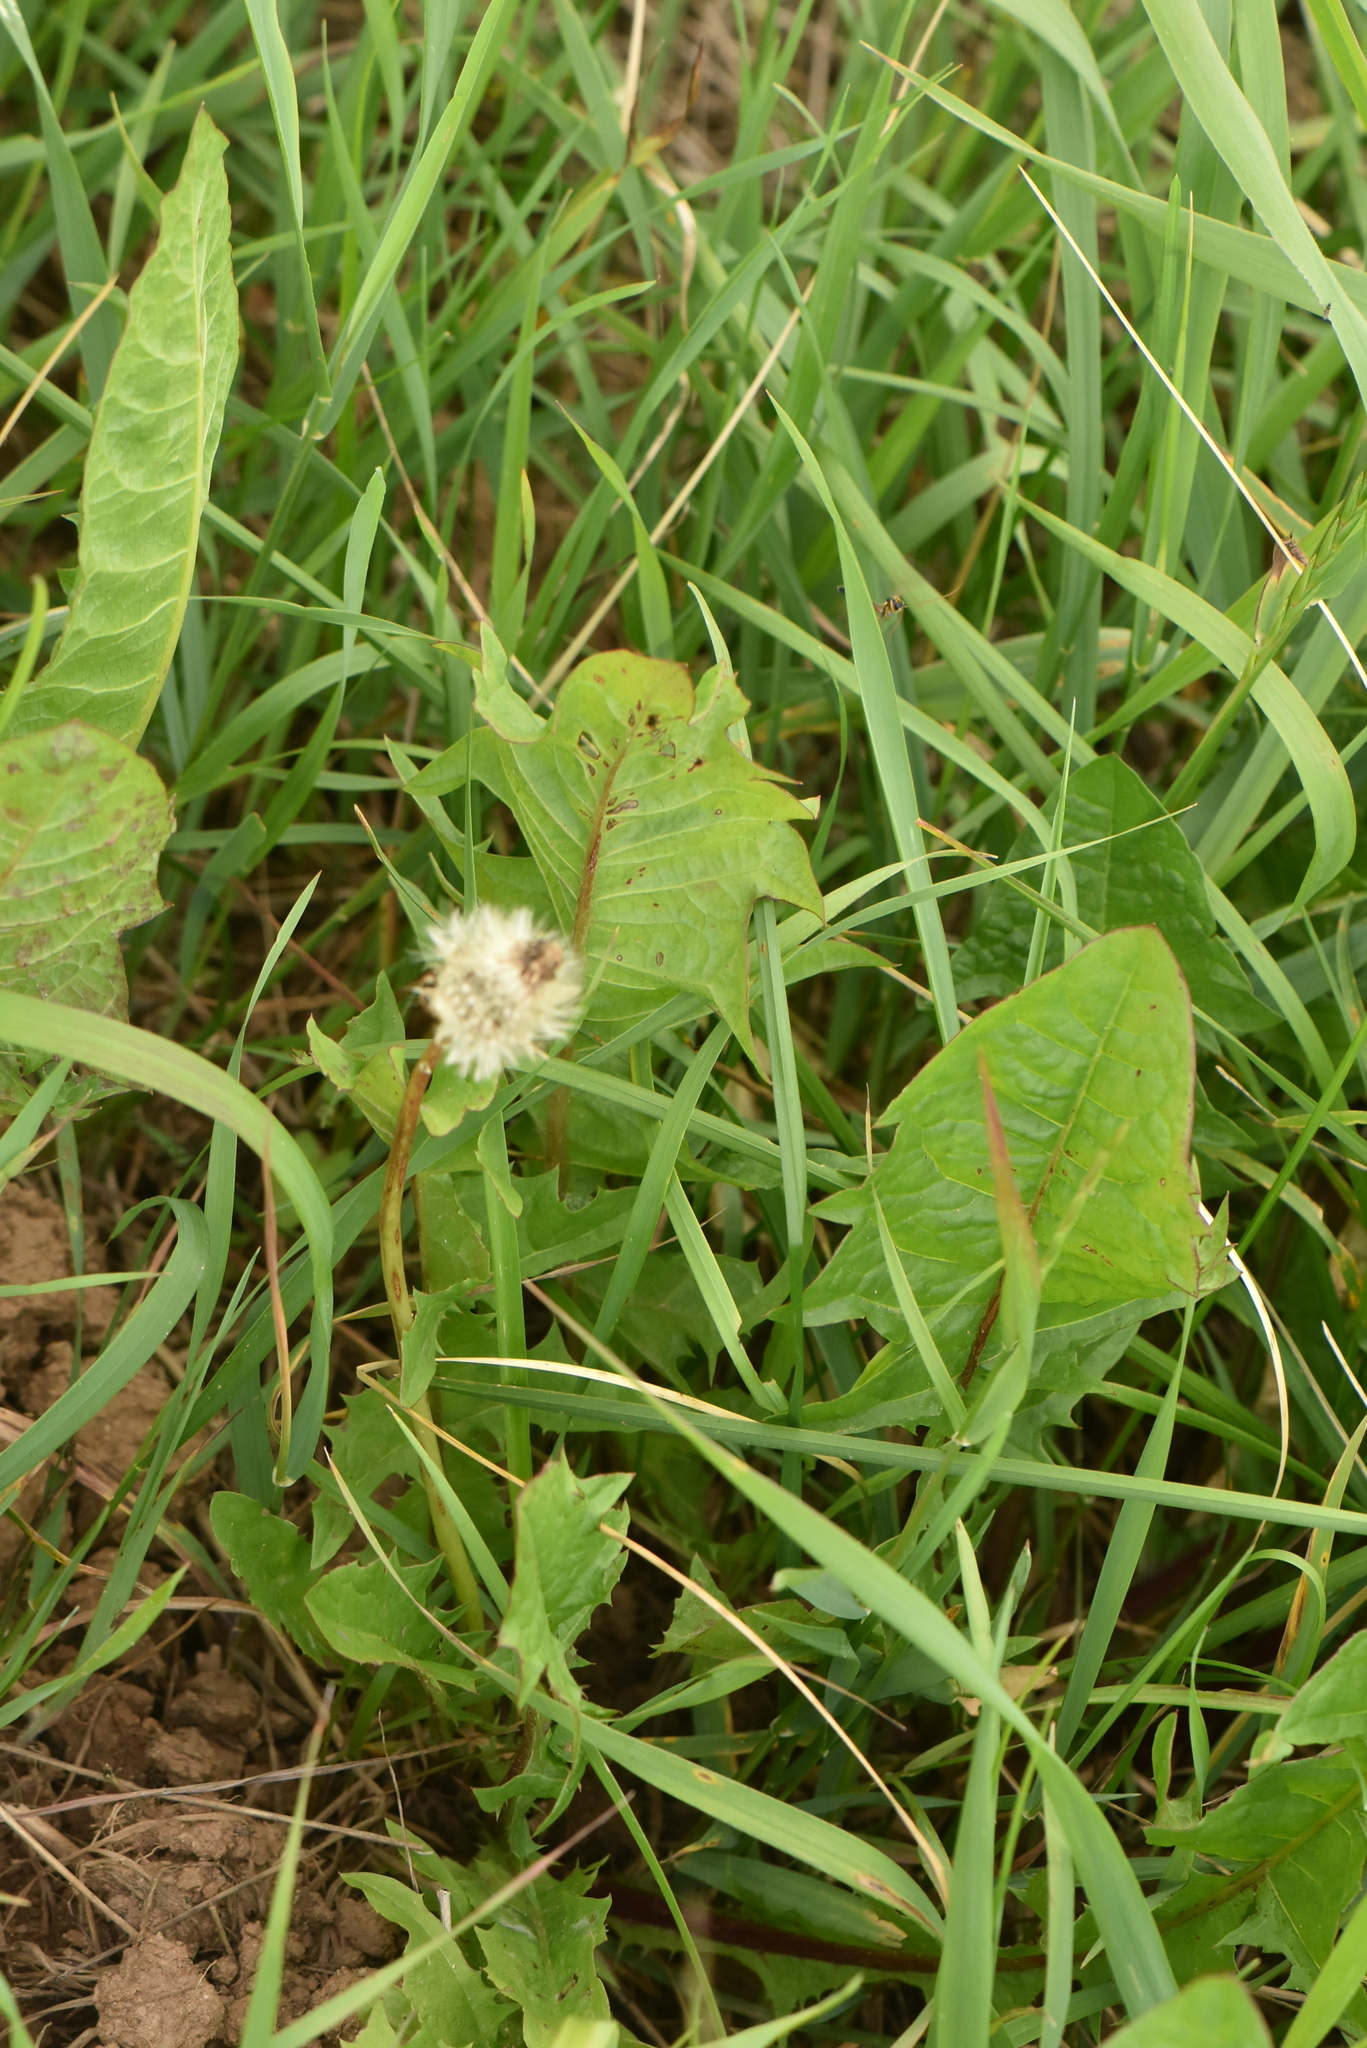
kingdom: Plantae
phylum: Tracheophyta
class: Magnoliopsida
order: Asterales
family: Asteraceae
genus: Taraxacum
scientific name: Taraxacum officinale
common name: Common dandelion
